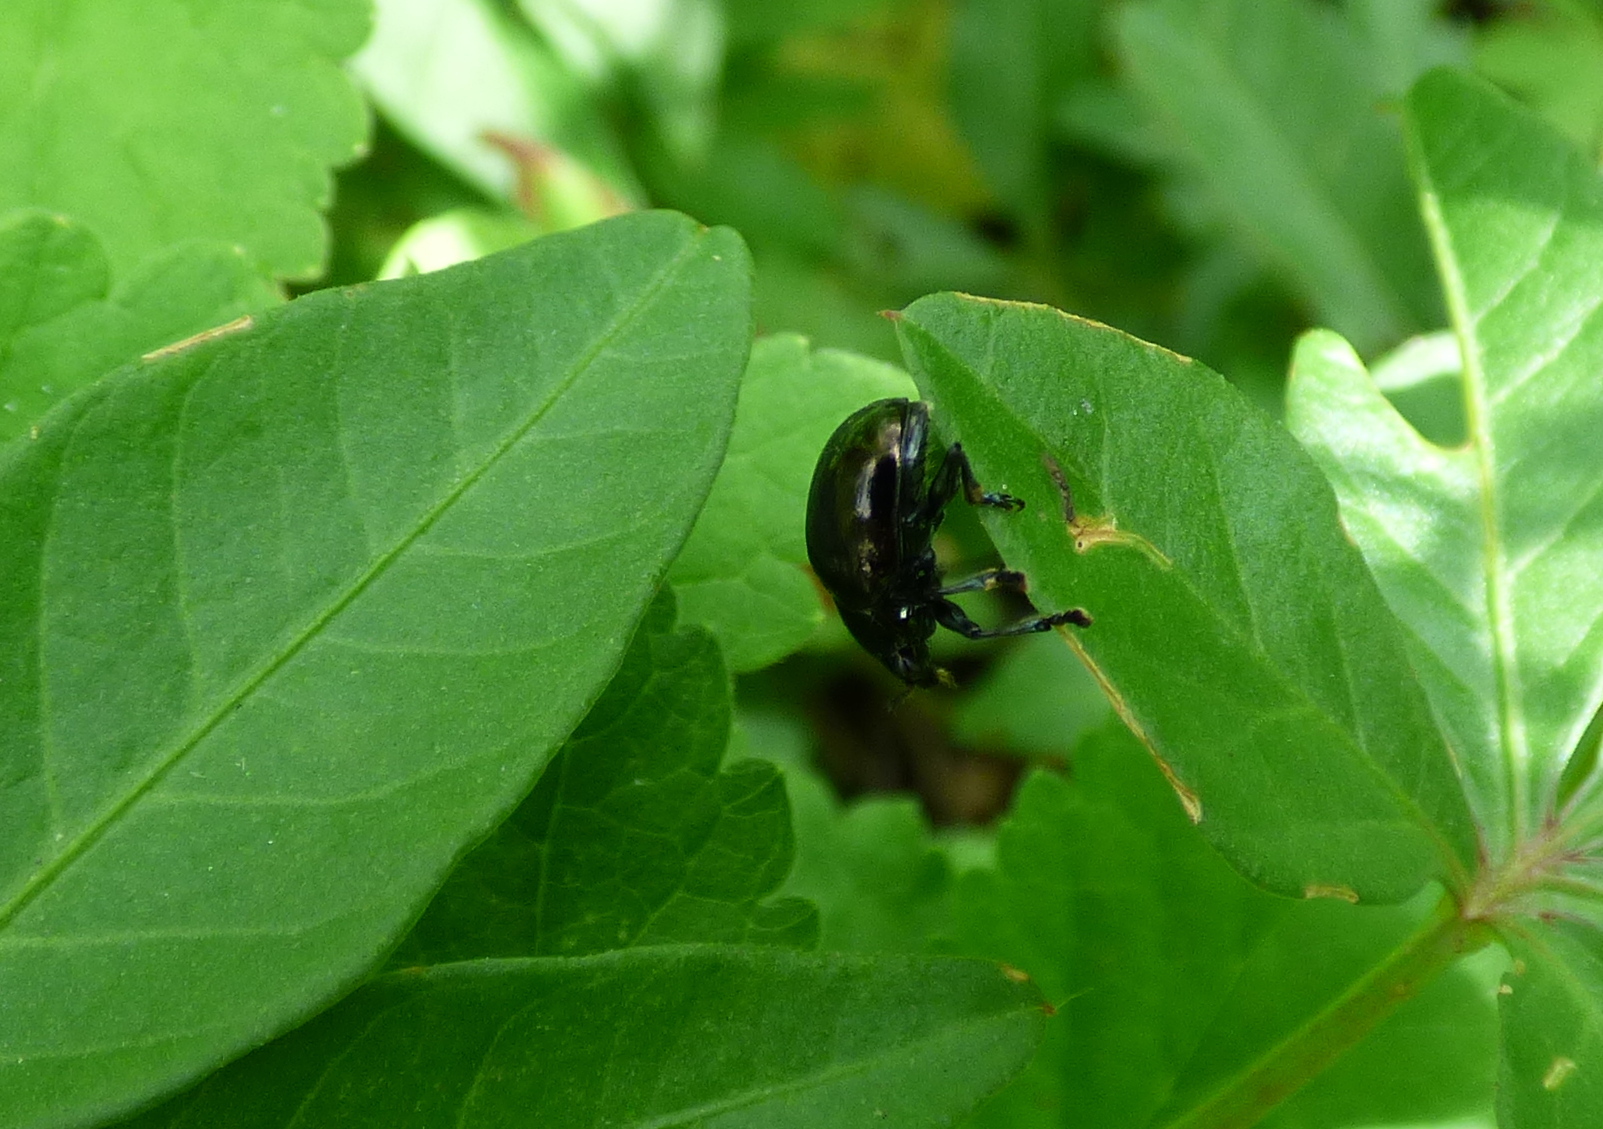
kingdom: Animalia
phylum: Arthropoda
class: Insecta
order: Coleoptera
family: Chrysomelidae
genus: Typophorus
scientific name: Typophorus nigritus
